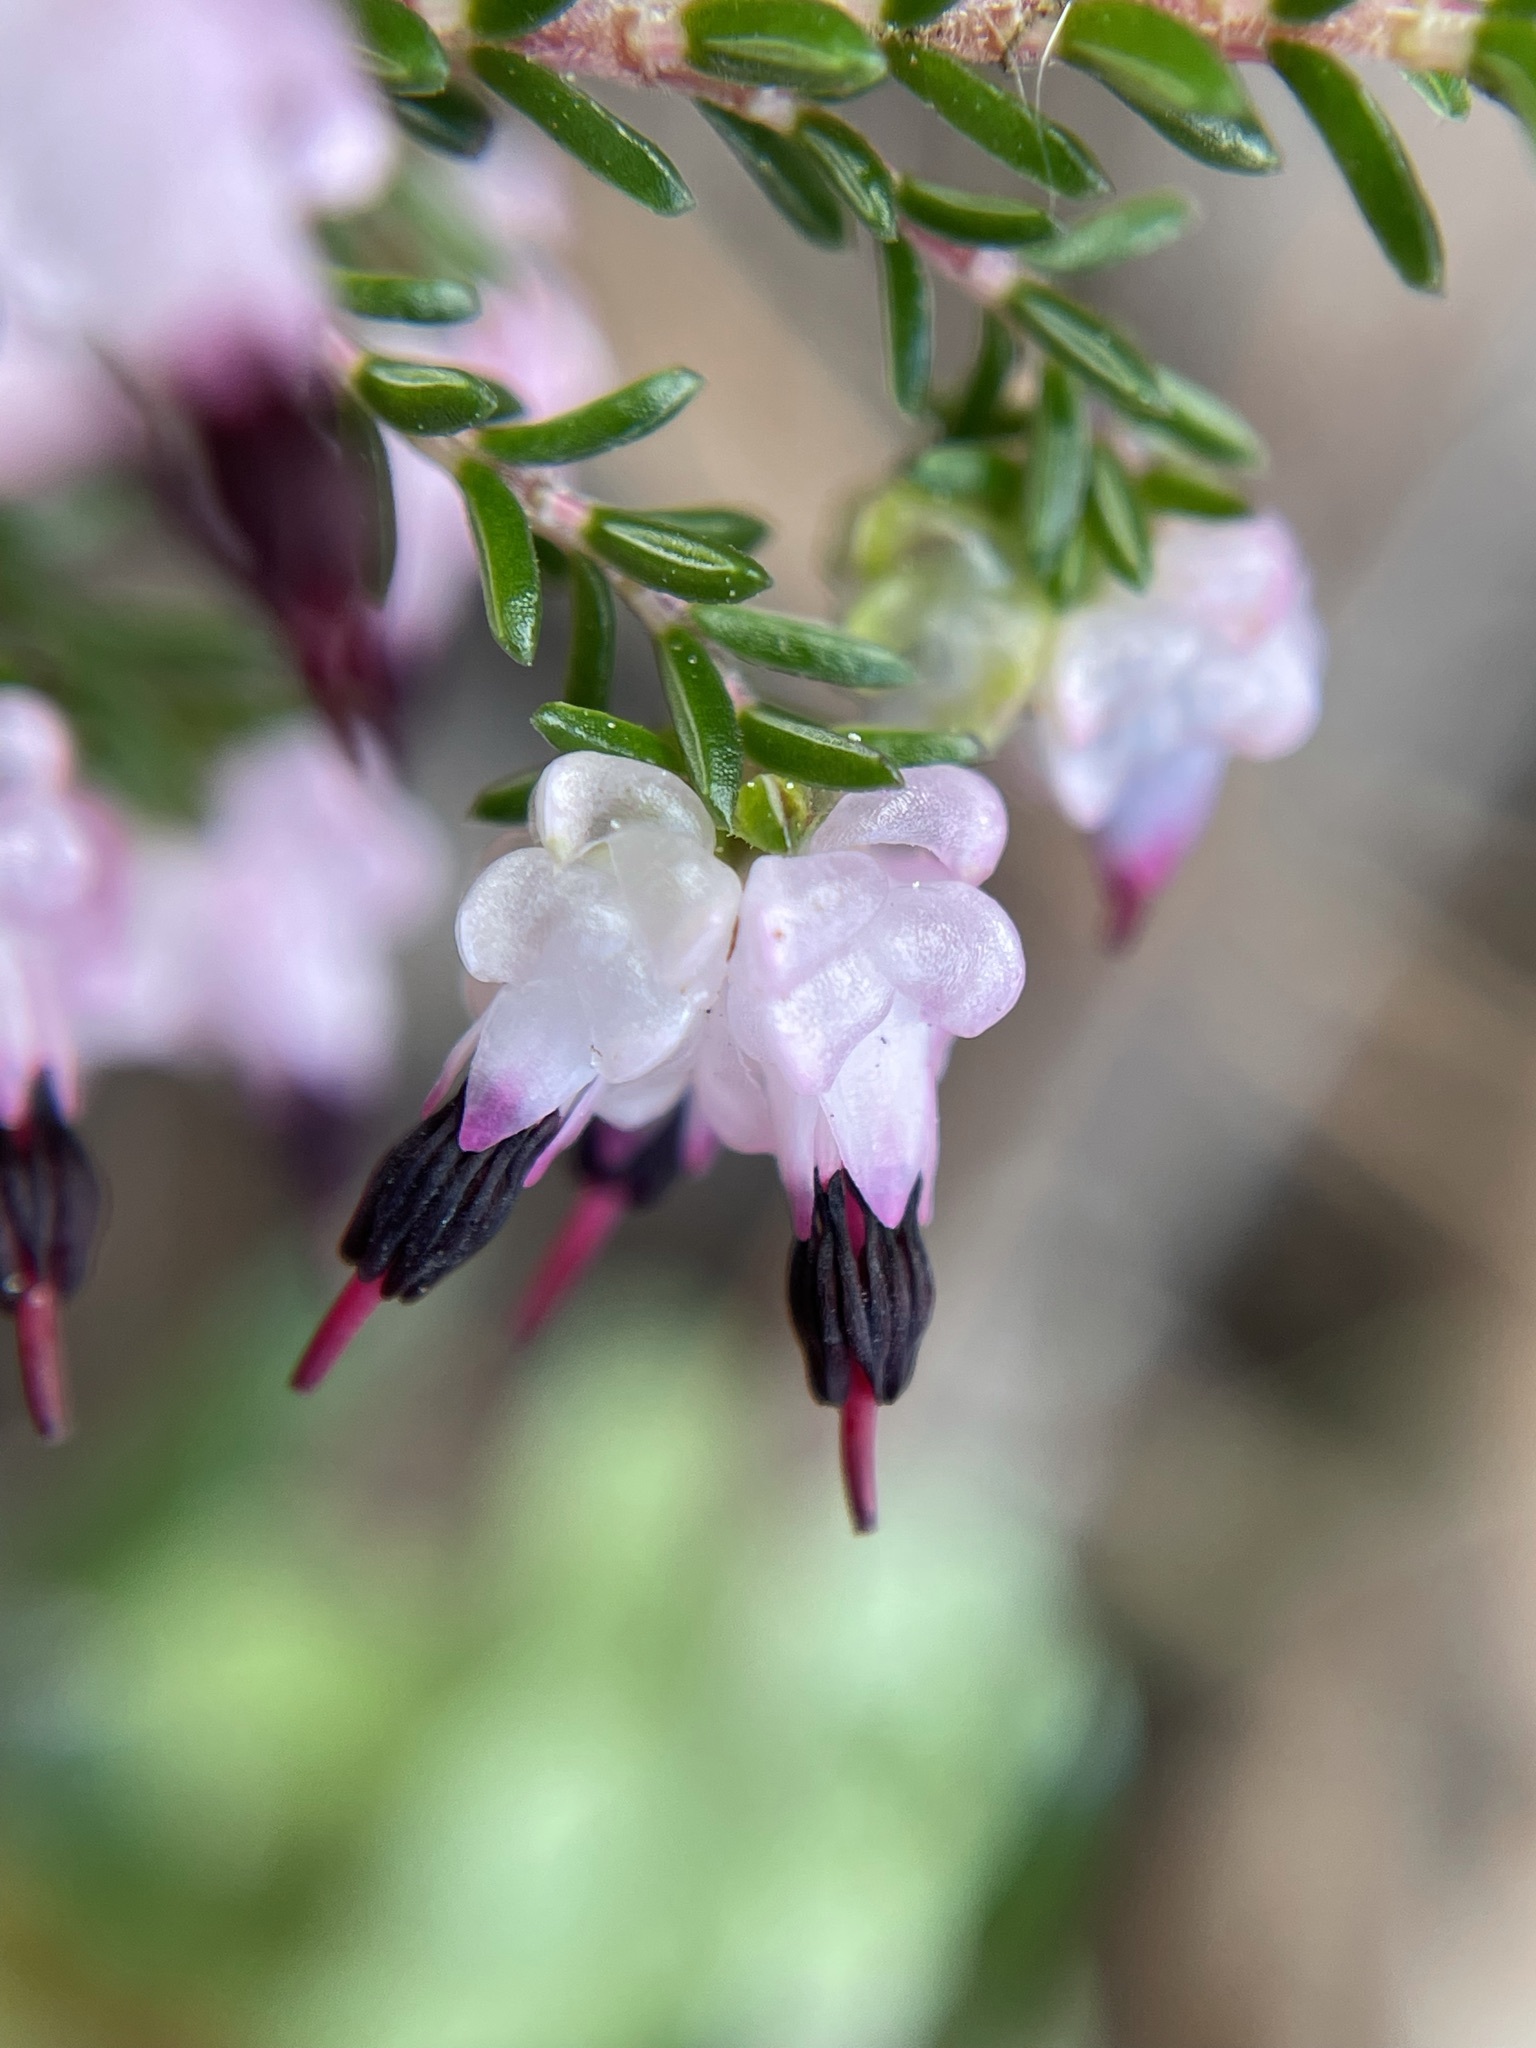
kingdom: Plantae
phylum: Tracheophyta
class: Magnoliopsida
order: Ericales
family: Ericaceae
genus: Erica
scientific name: Erica spumosa
